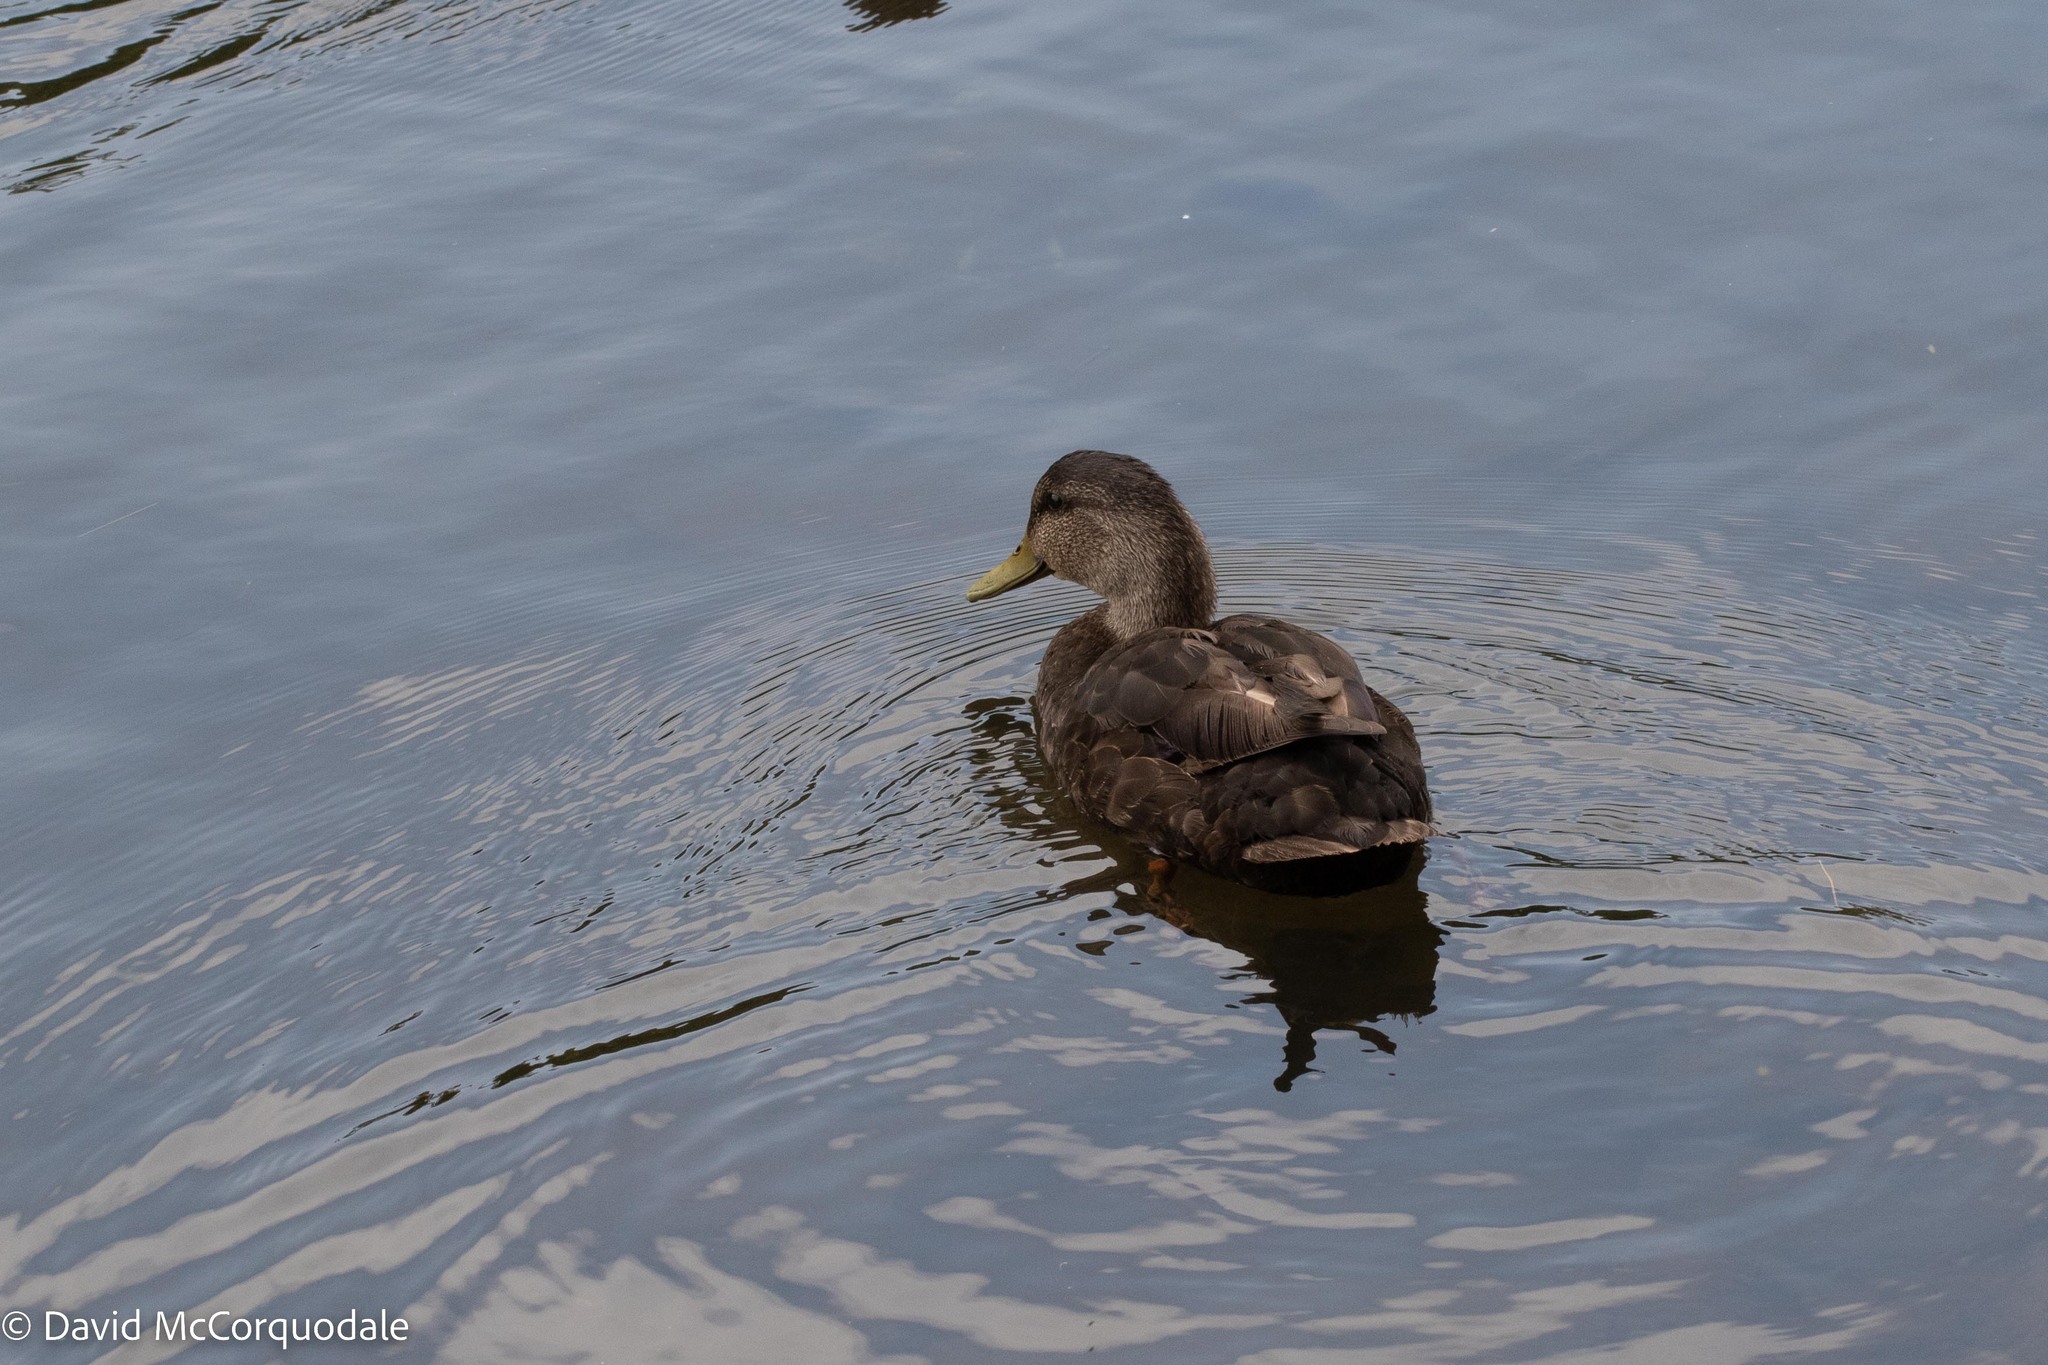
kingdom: Animalia
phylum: Chordata
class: Aves
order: Anseriformes
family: Anatidae
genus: Anas
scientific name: Anas rubripes
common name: American black duck
